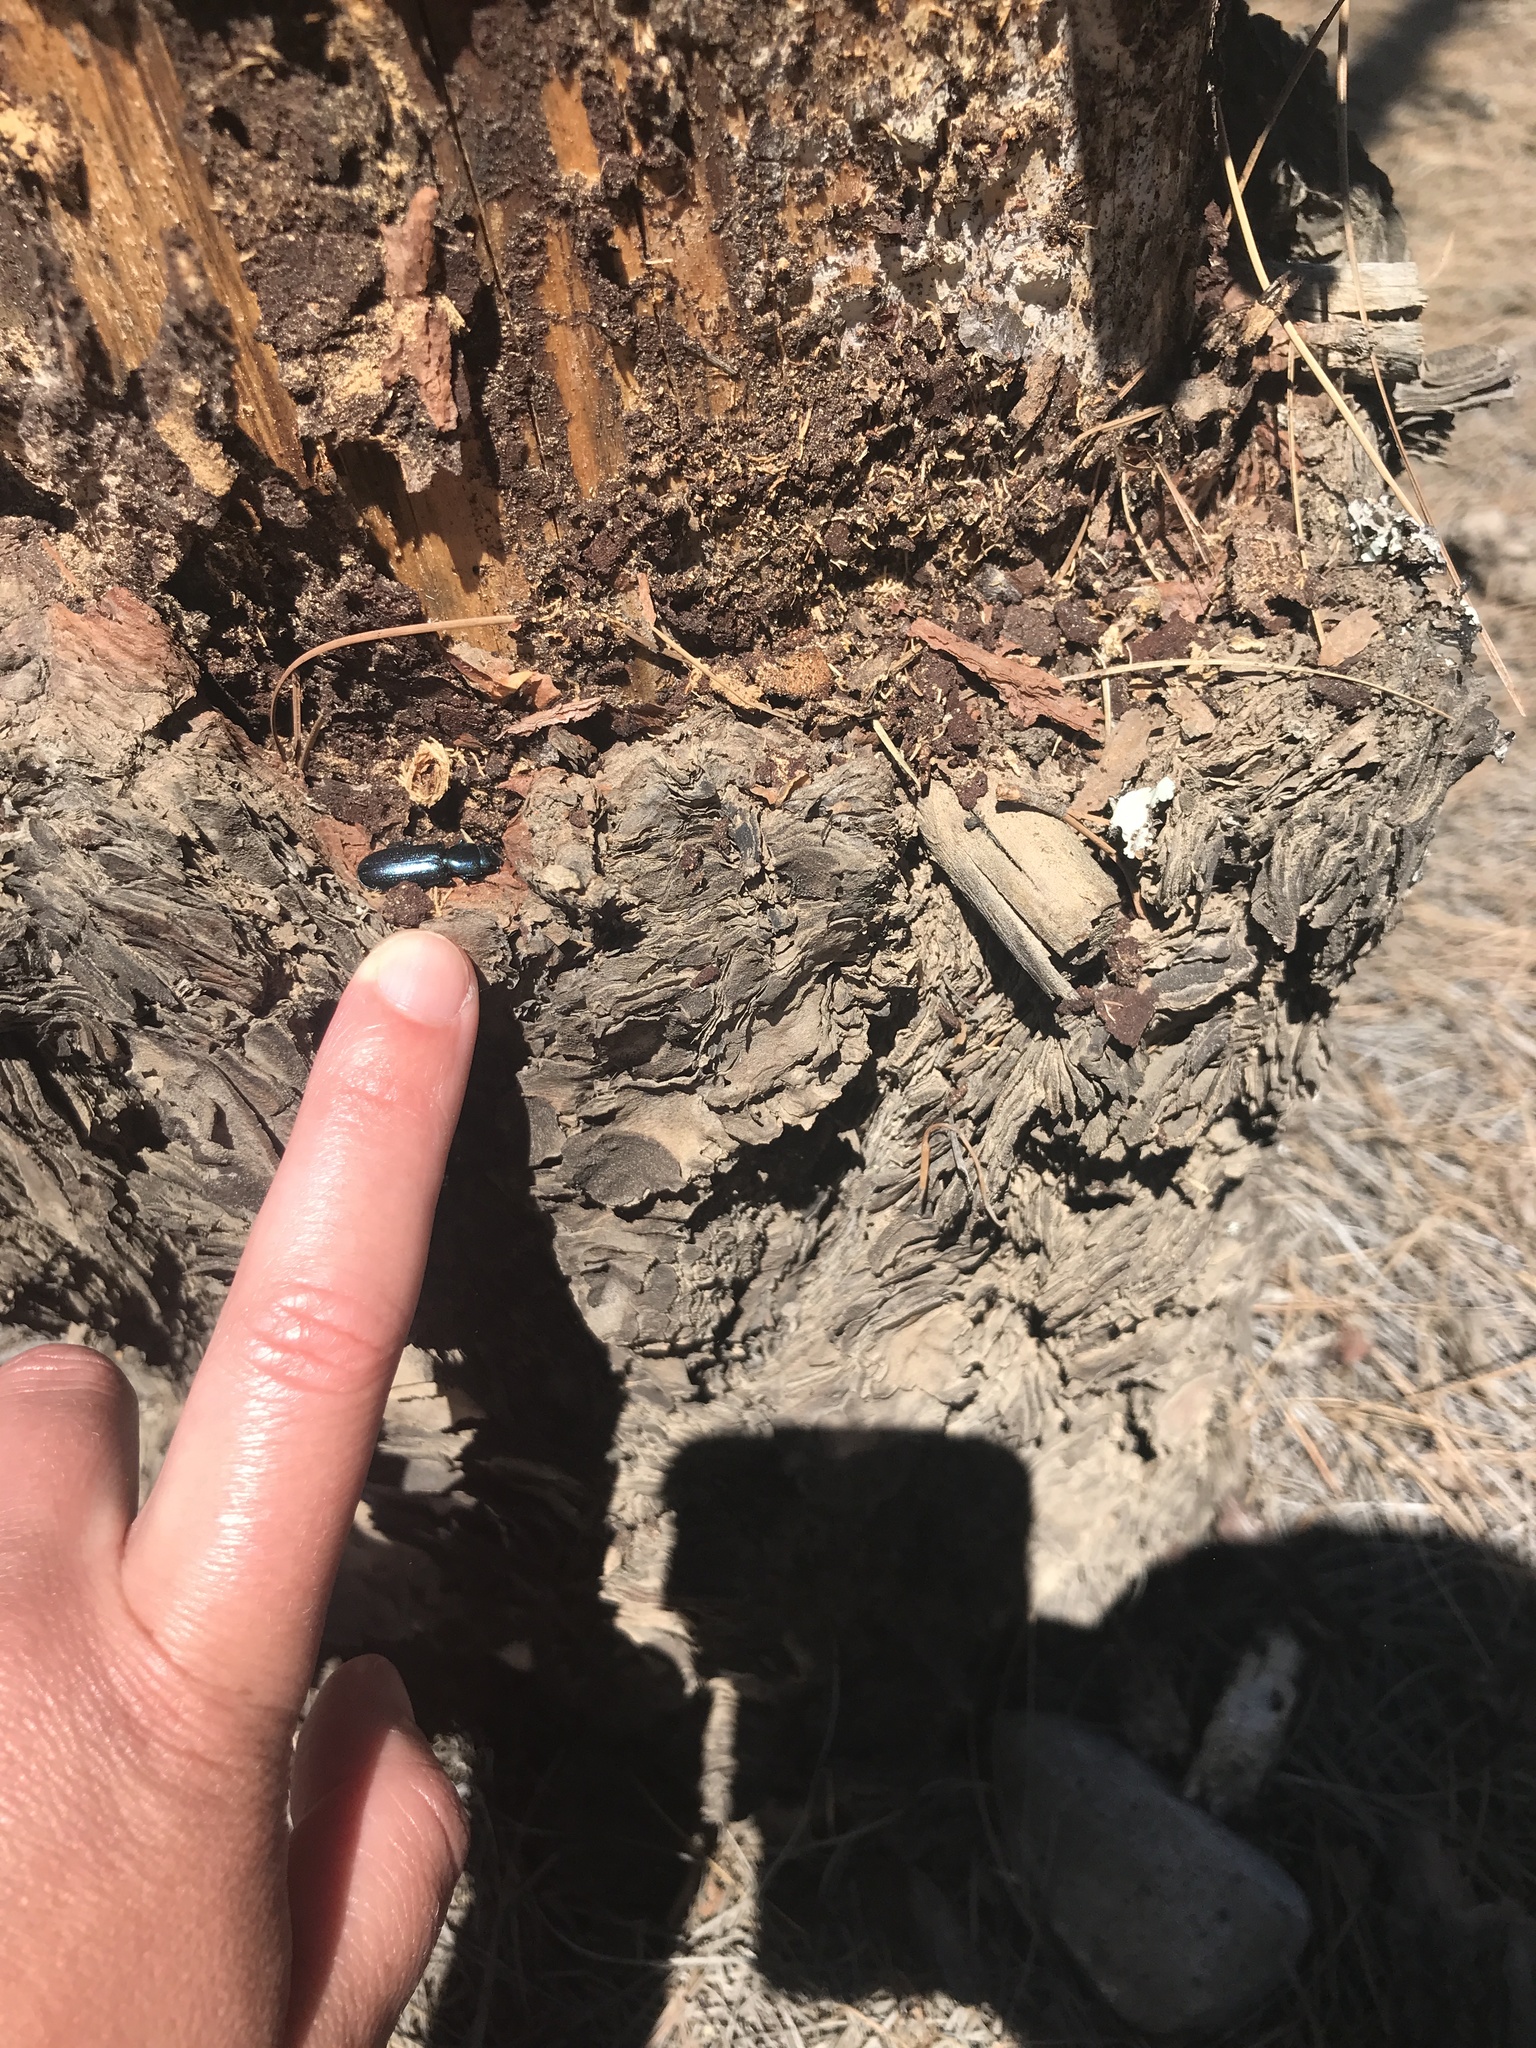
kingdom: Animalia
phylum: Arthropoda
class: Insecta
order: Coleoptera
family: Trogossitidae
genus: Temnoscheila
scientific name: Temnoscheila caerulea
